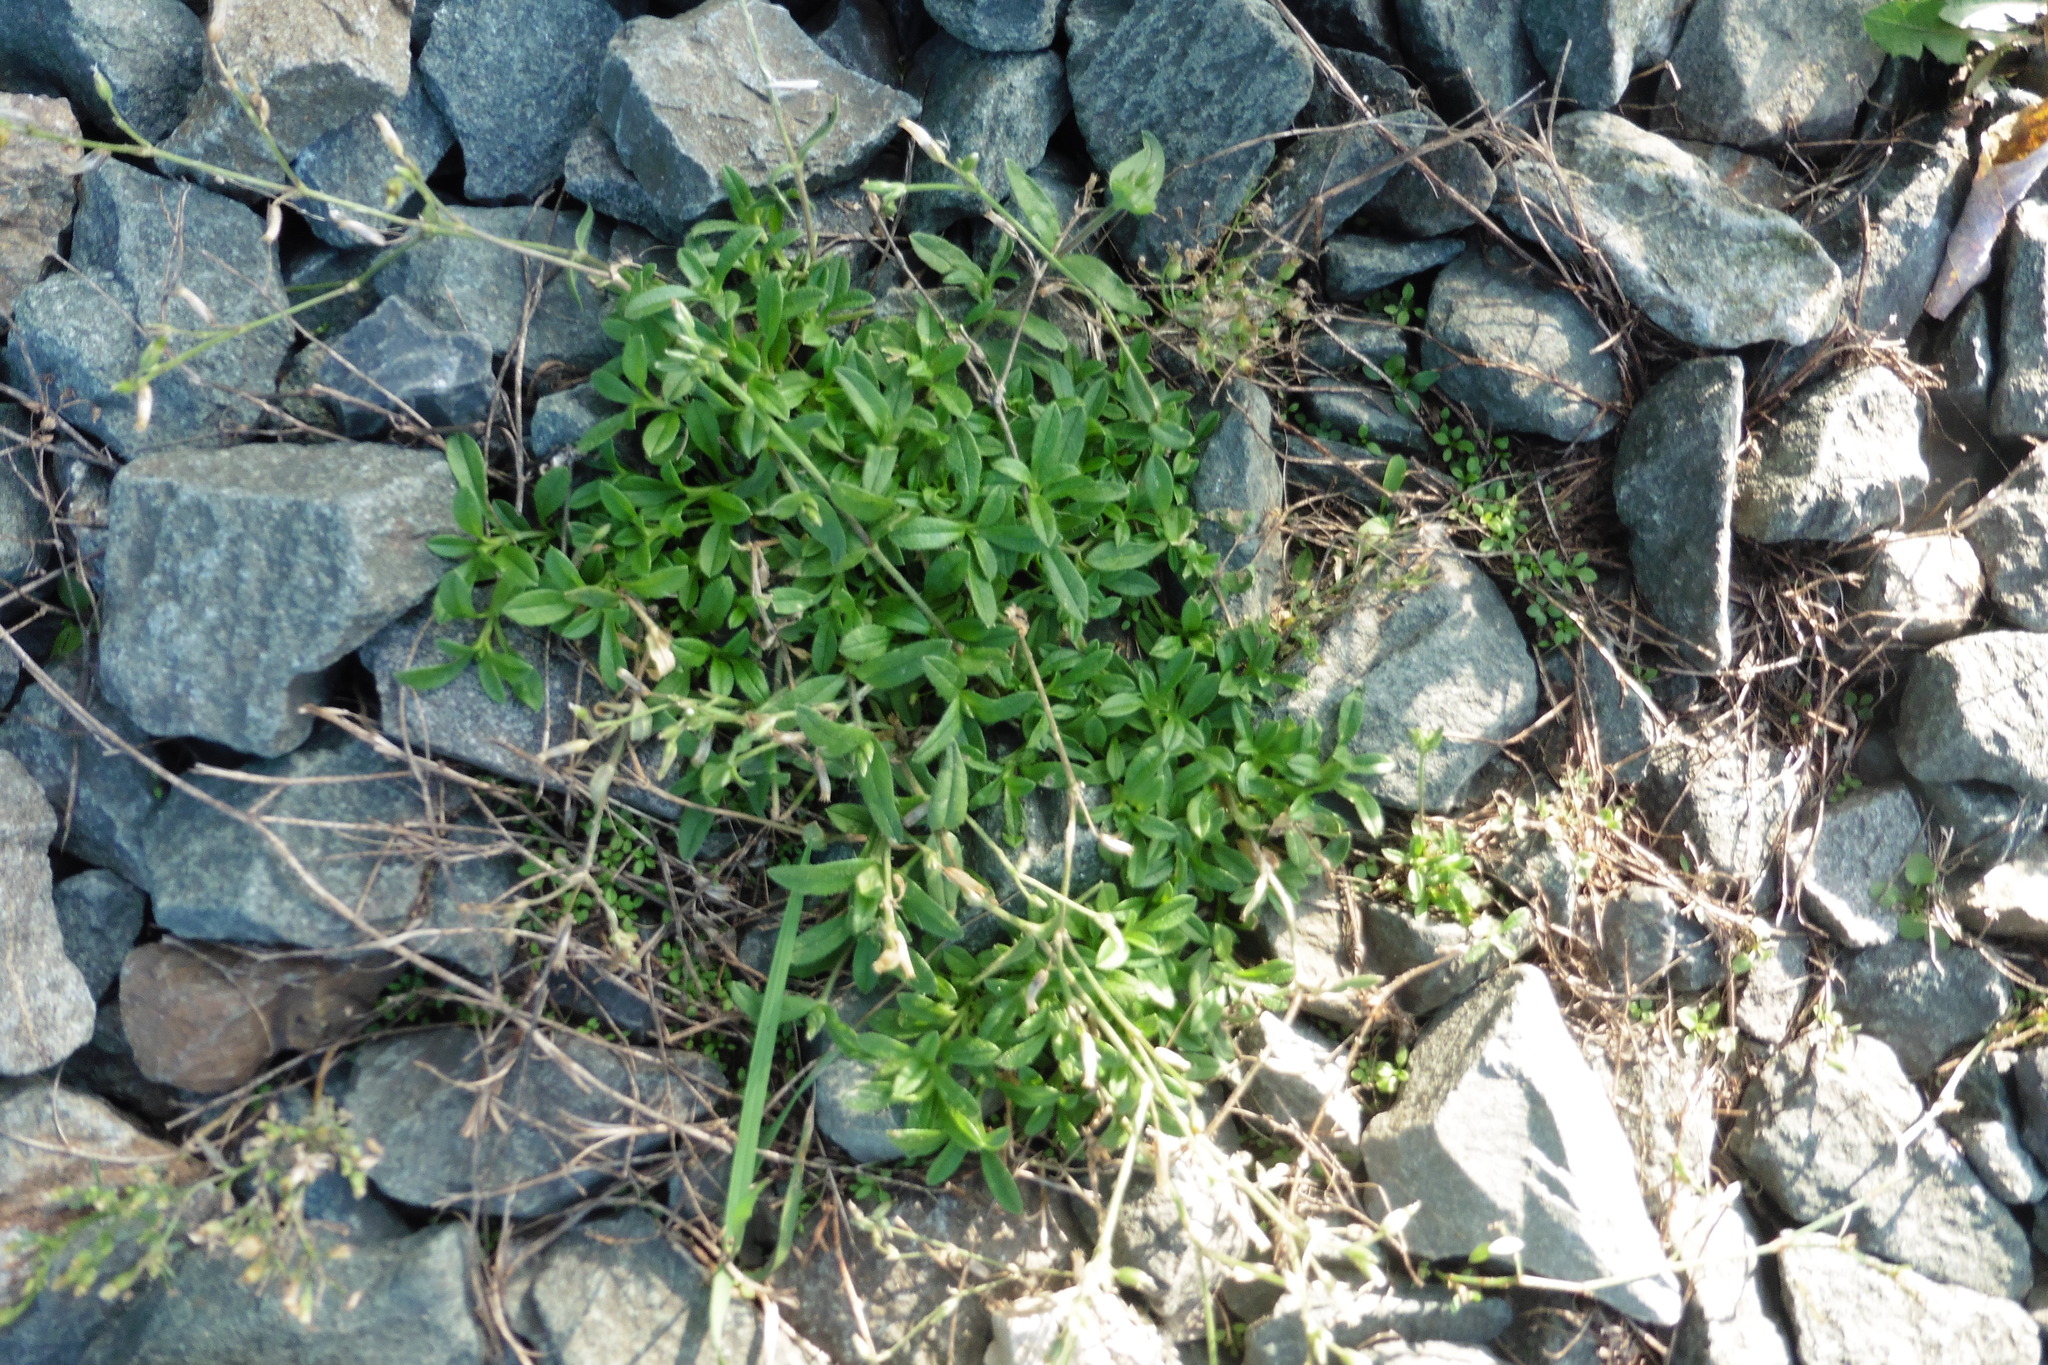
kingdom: Plantae
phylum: Tracheophyta
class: Magnoliopsida
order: Caryophyllales
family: Caryophyllaceae
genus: Cerastium
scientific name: Cerastium holosteoides
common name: Big chickweed
